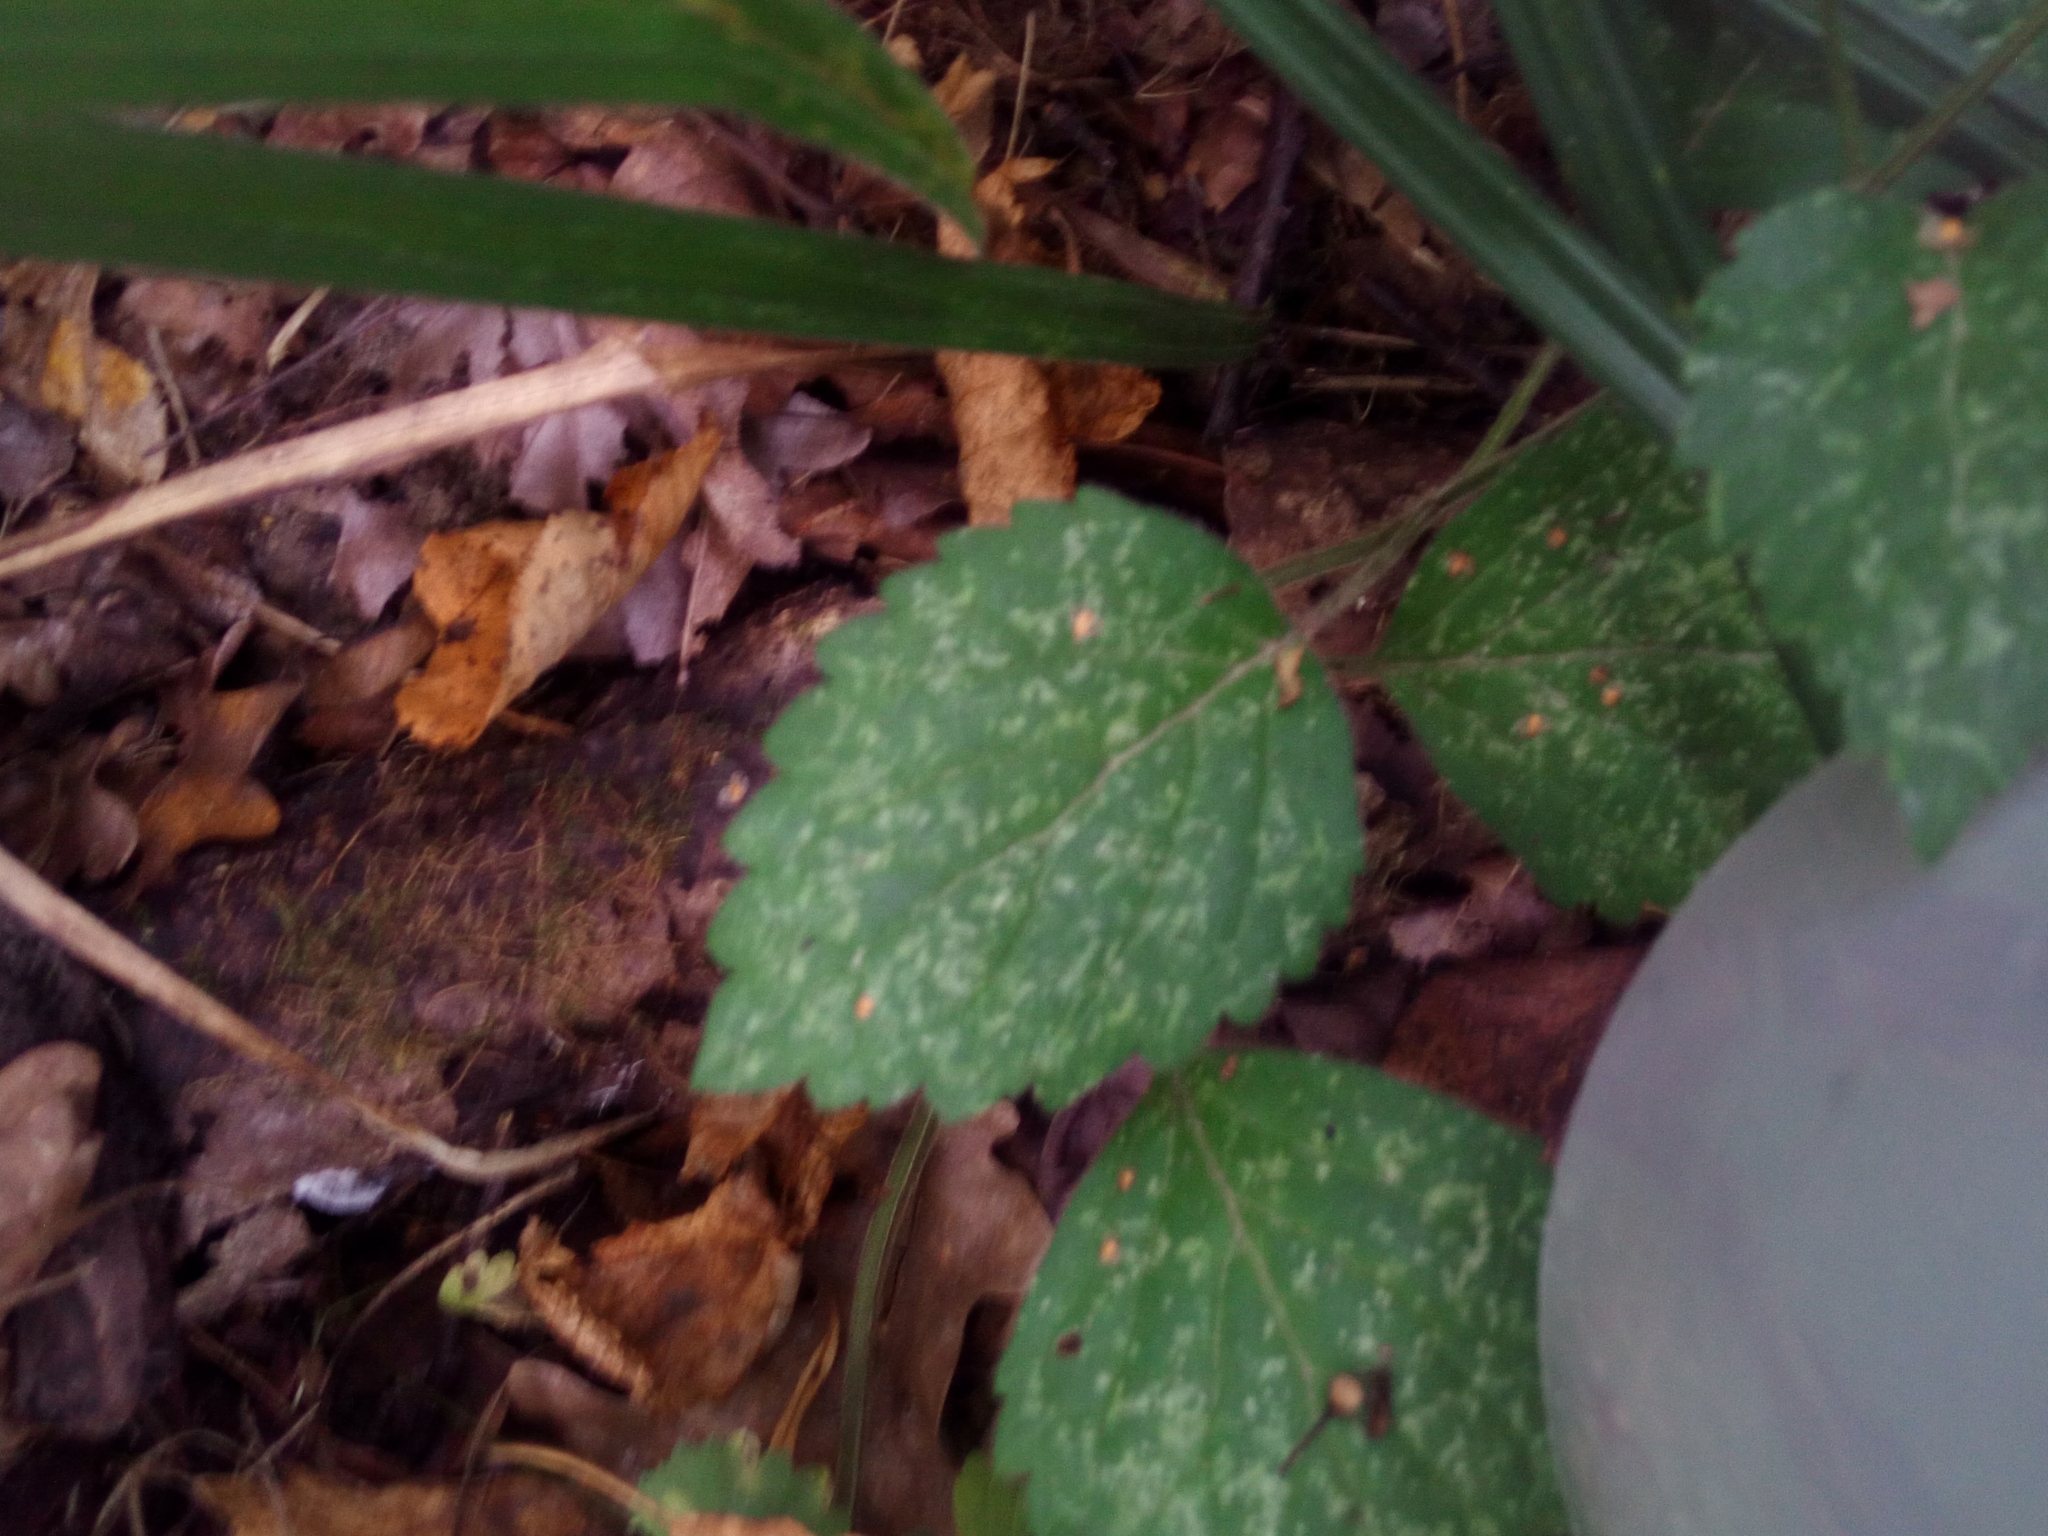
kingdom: Plantae
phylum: Tracheophyta
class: Magnoliopsida
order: Lamiales
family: Lamiaceae
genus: Lamium
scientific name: Lamium galeobdolon
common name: Yellow archangel
